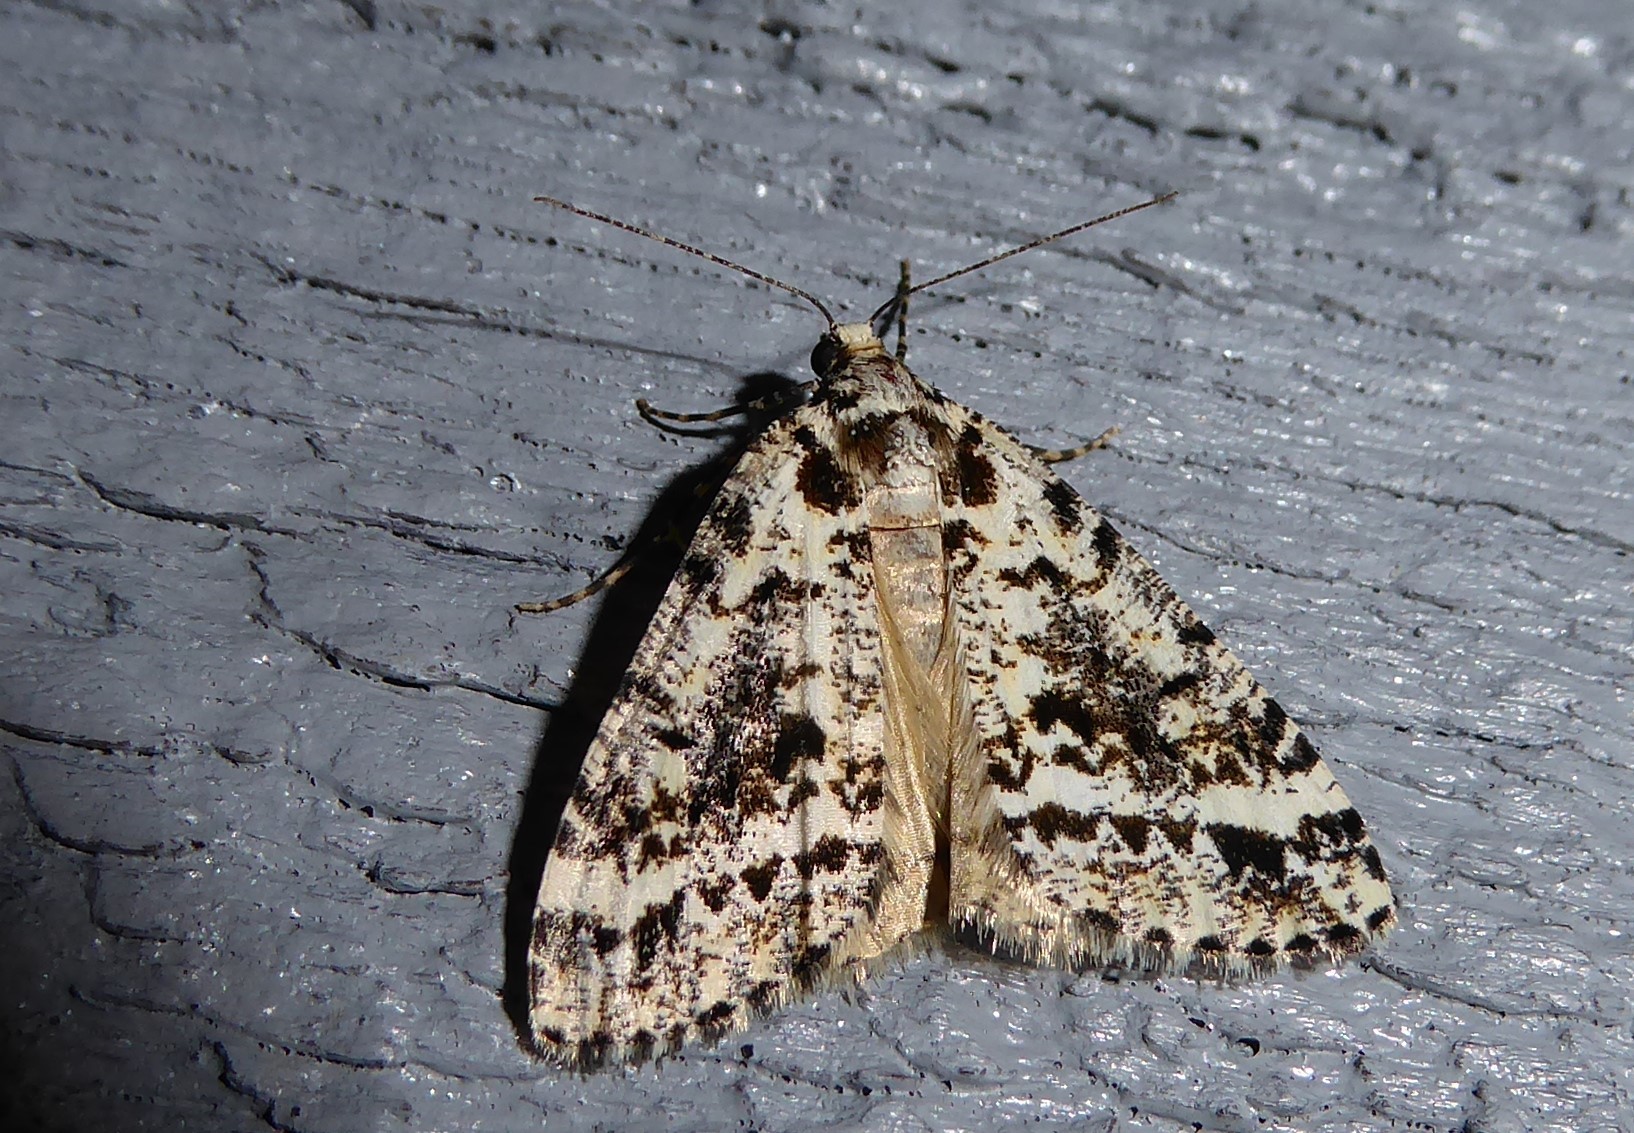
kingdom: Animalia
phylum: Arthropoda
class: Insecta
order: Lepidoptera
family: Geometridae
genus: Pseudocoremia
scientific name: Pseudocoremia leucelaea
